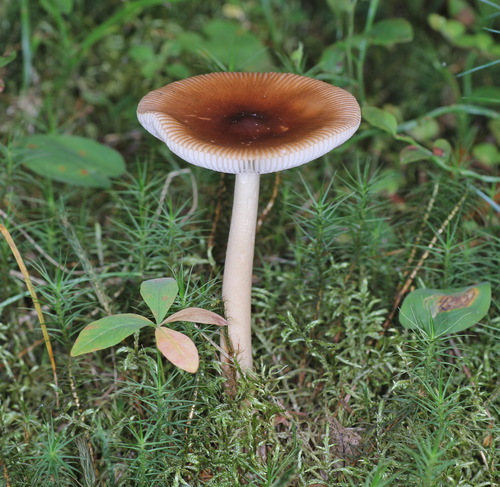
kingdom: Fungi
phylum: Basidiomycota
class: Agaricomycetes
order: Agaricales
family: Amanitaceae
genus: Amanita
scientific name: Amanita fulva
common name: Tawny grisette
